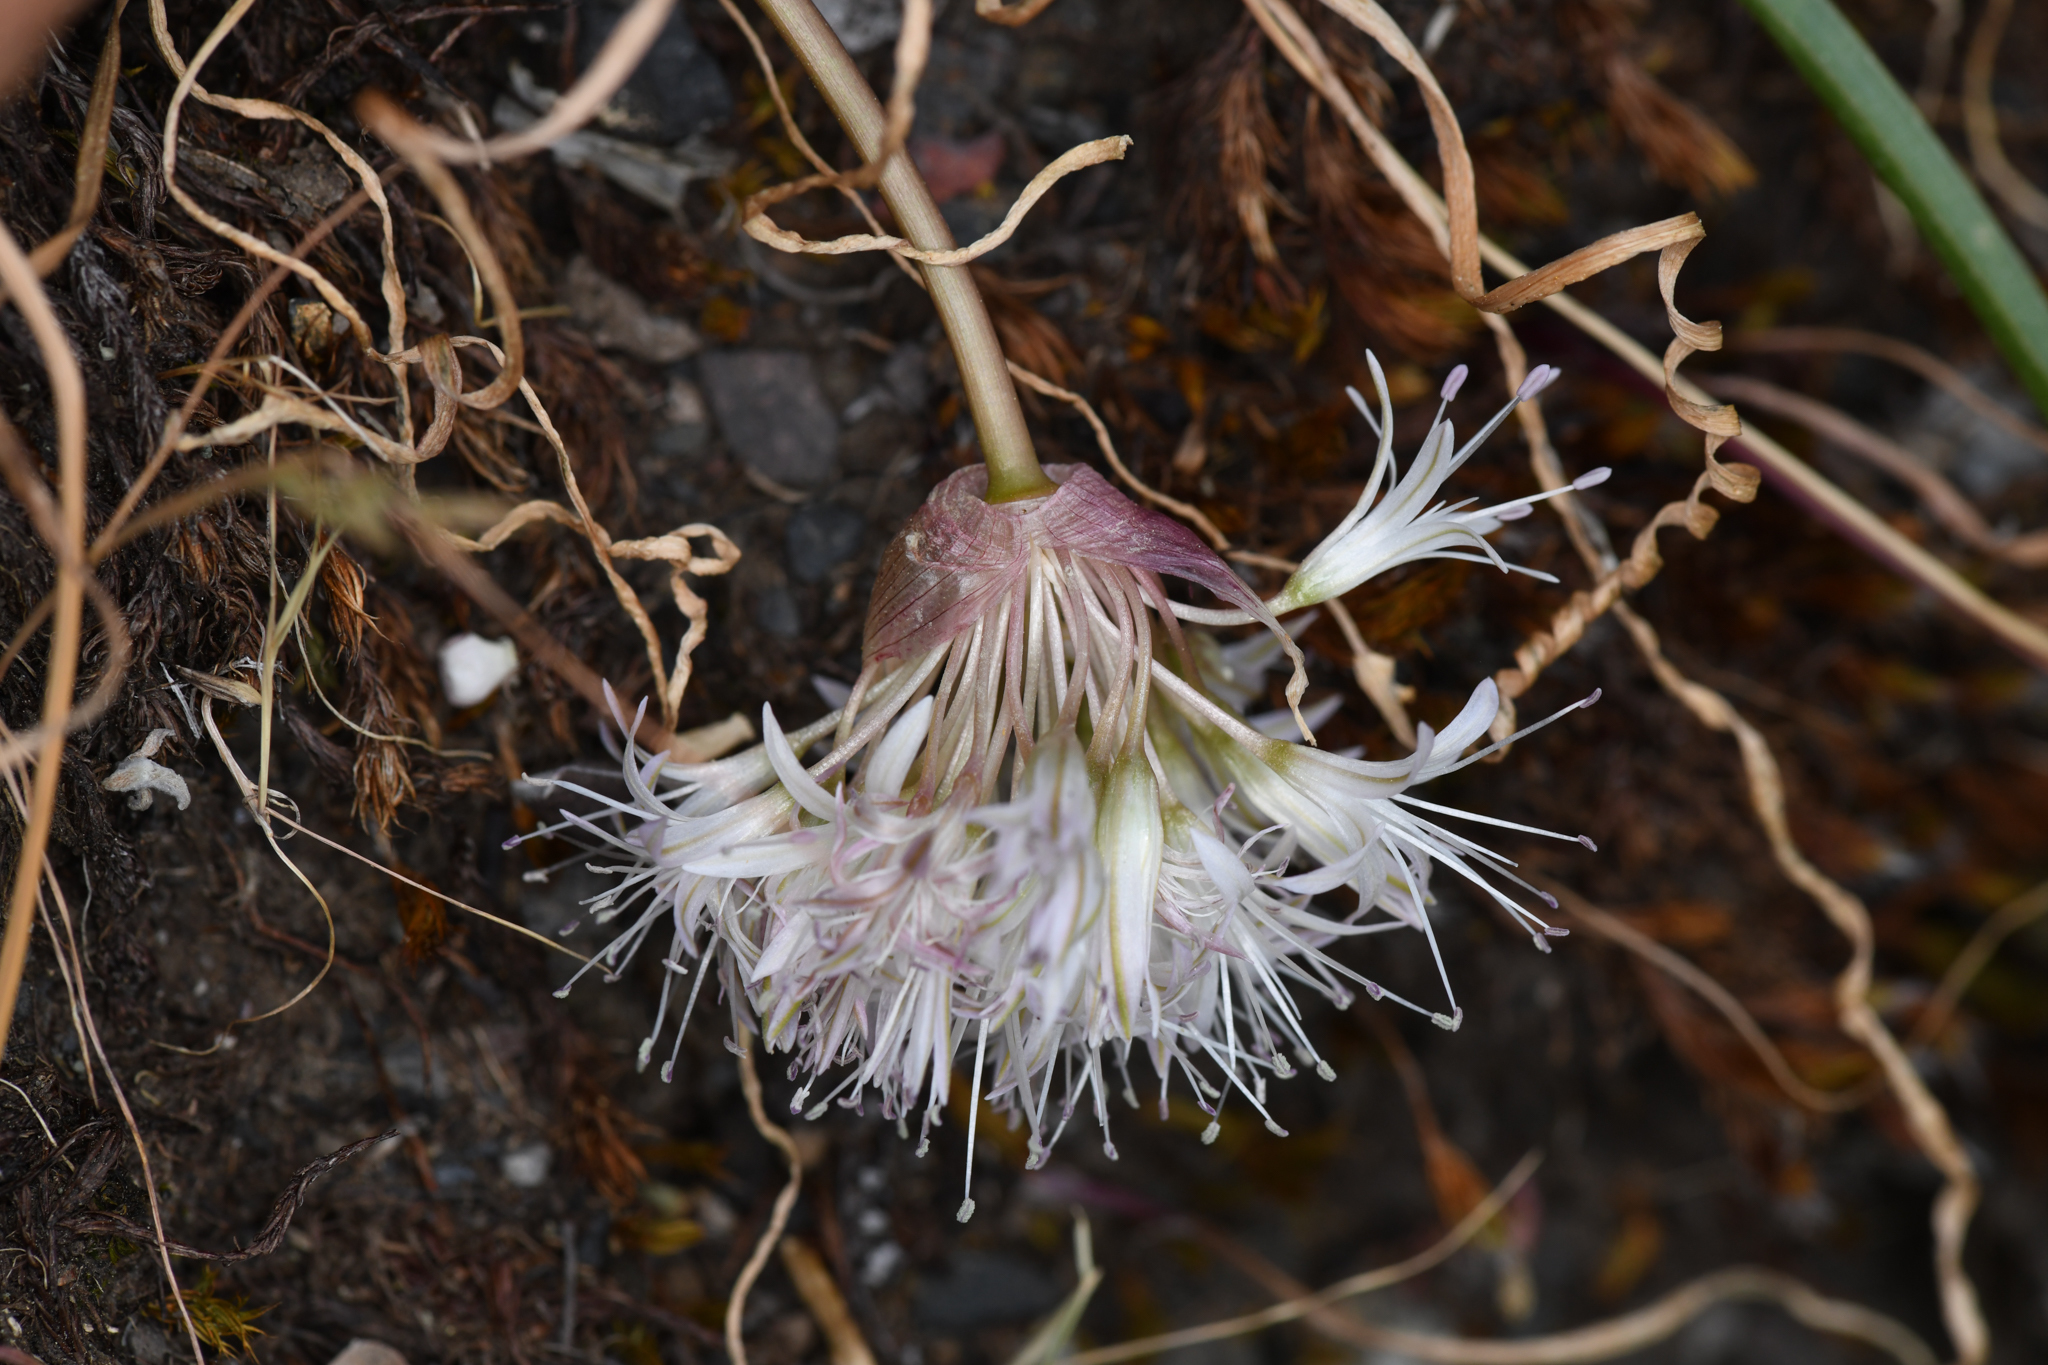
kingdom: Plantae
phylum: Tracheophyta
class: Liliopsida
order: Asparagales
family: Amaryllidaceae
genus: Allium
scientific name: Allium yosemitense
